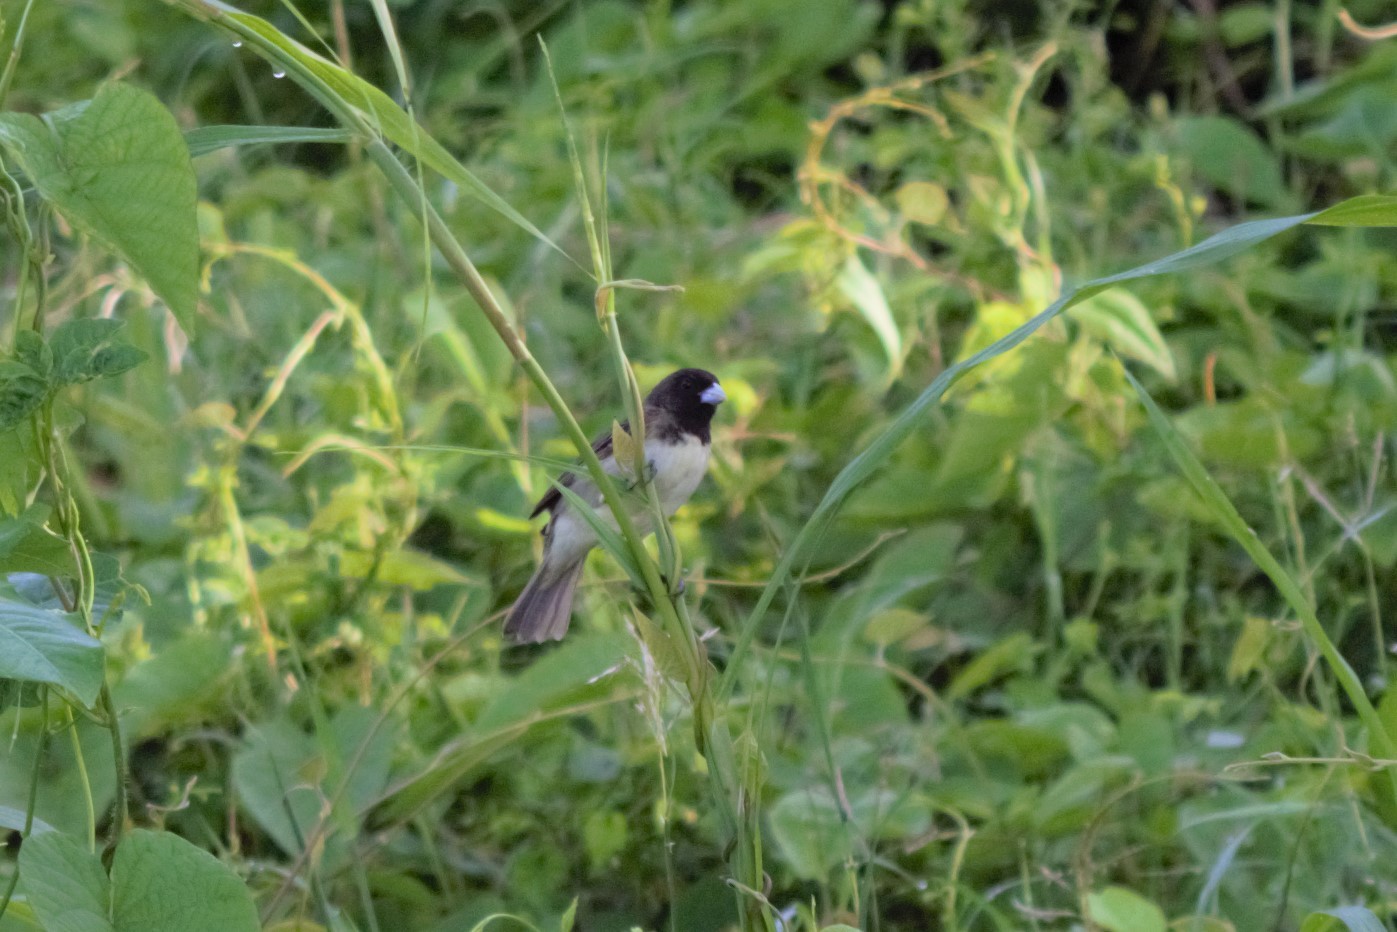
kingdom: Animalia
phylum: Chordata
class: Aves
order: Passeriformes
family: Thraupidae
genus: Sporophila
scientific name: Sporophila nigricollis
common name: Yellow-bellied seedeater
